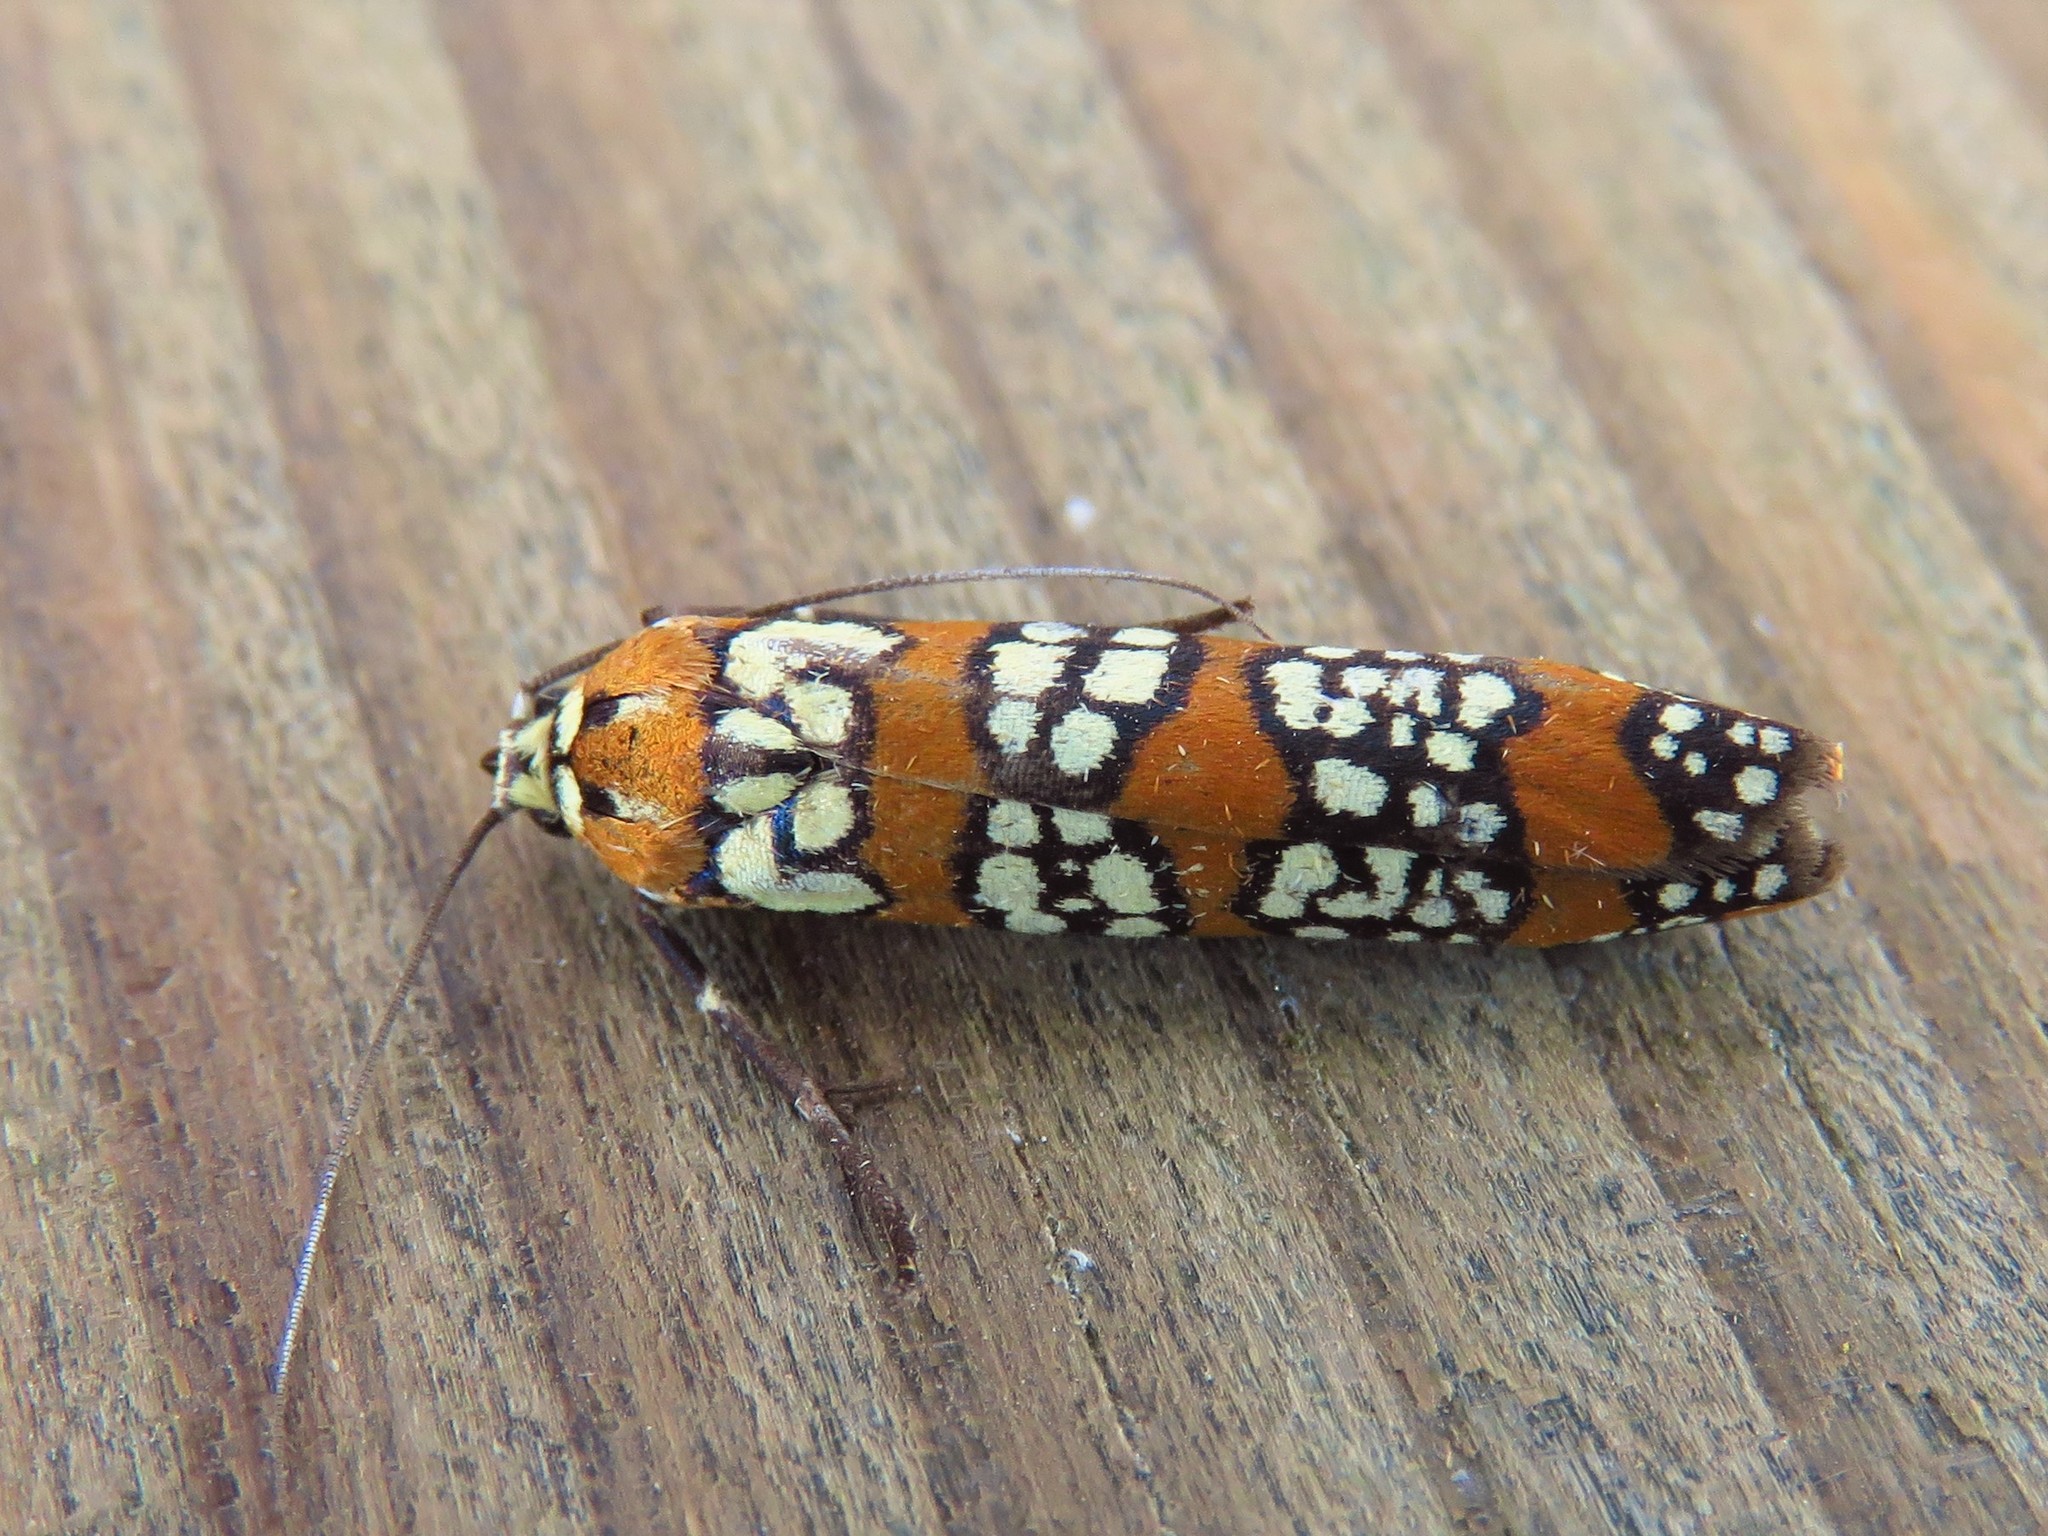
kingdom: Animalia
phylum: Arthropoda
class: Insecta
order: Lepidoptera
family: Attevidae
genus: Atteva
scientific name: Atteva punctella
